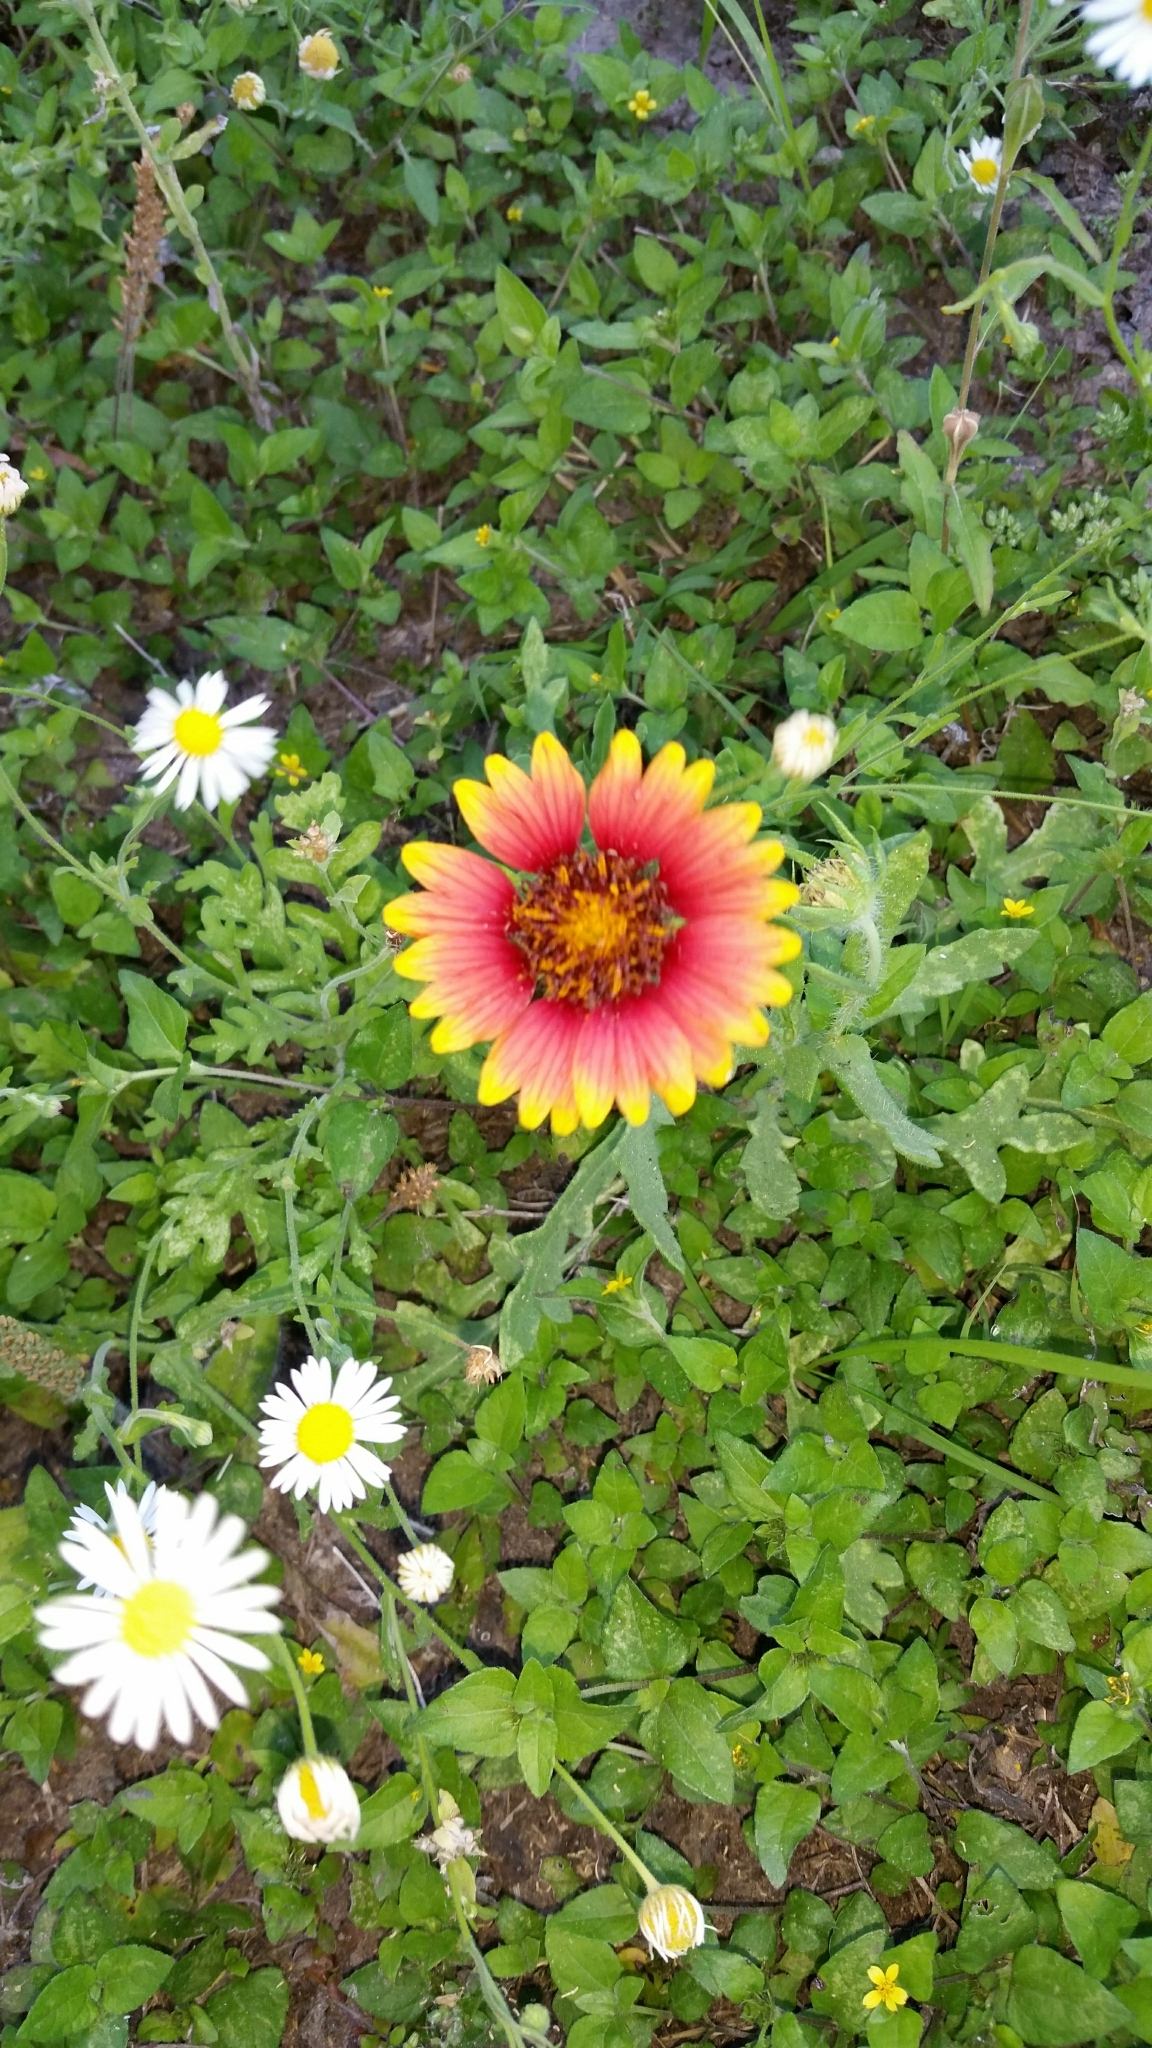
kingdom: Plantae
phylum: Tracheophyta
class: Magnoliopsida
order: Asterales
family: Asteraceae
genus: Gaillardia
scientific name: Gaillardia pulchella
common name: Firewheel
